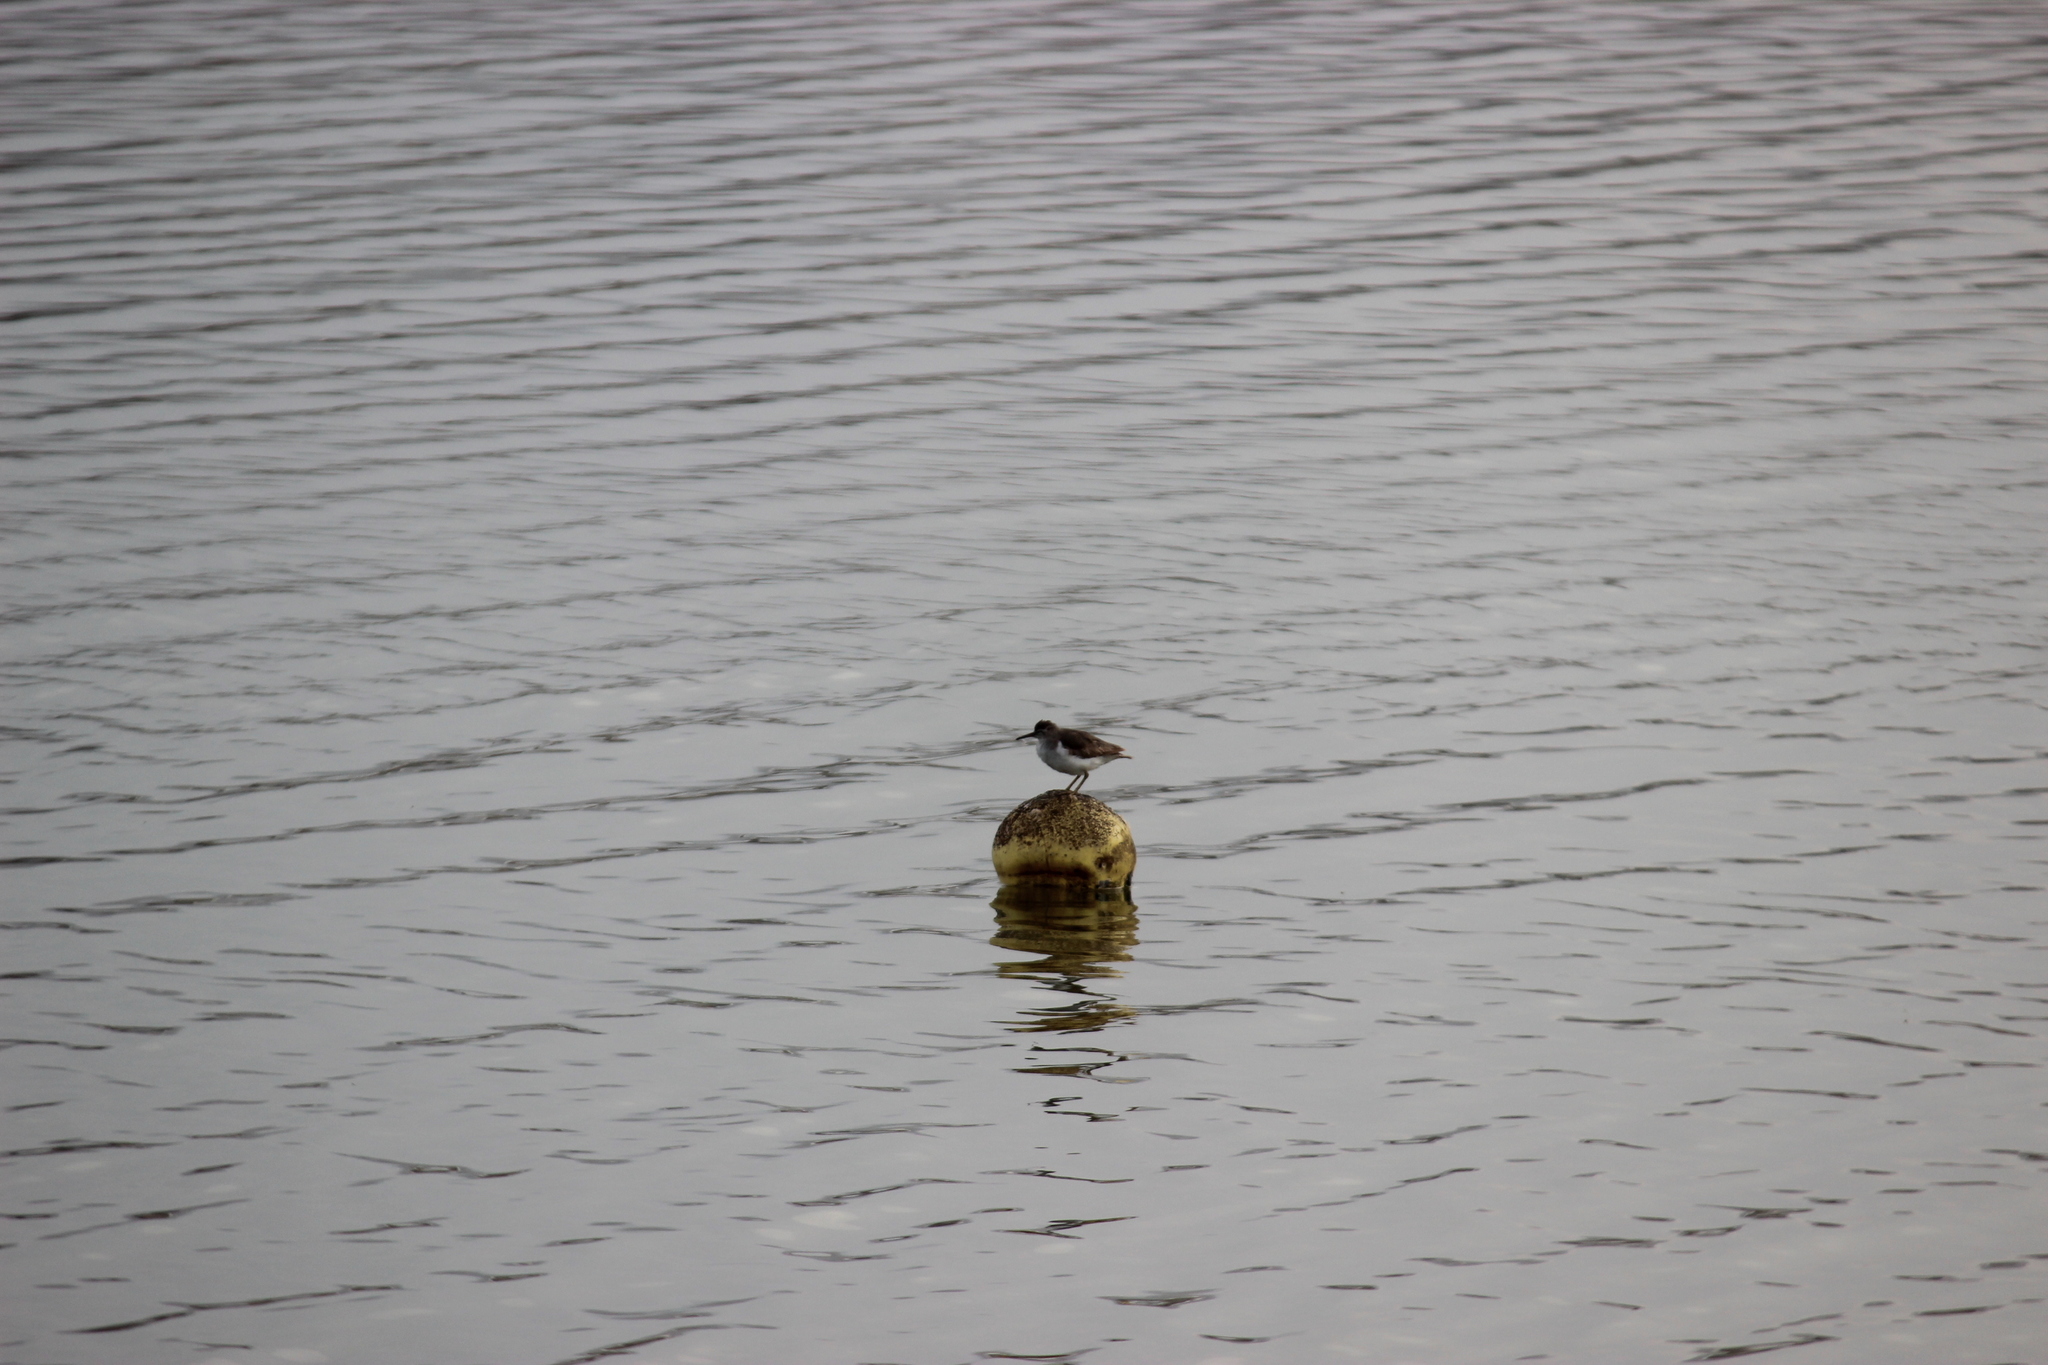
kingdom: Animalia
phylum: Chordata
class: Aves
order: Charadriiformes
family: Scolopacidae
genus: Actitis
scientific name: Actitis macularius
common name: Spotted sandpiper
